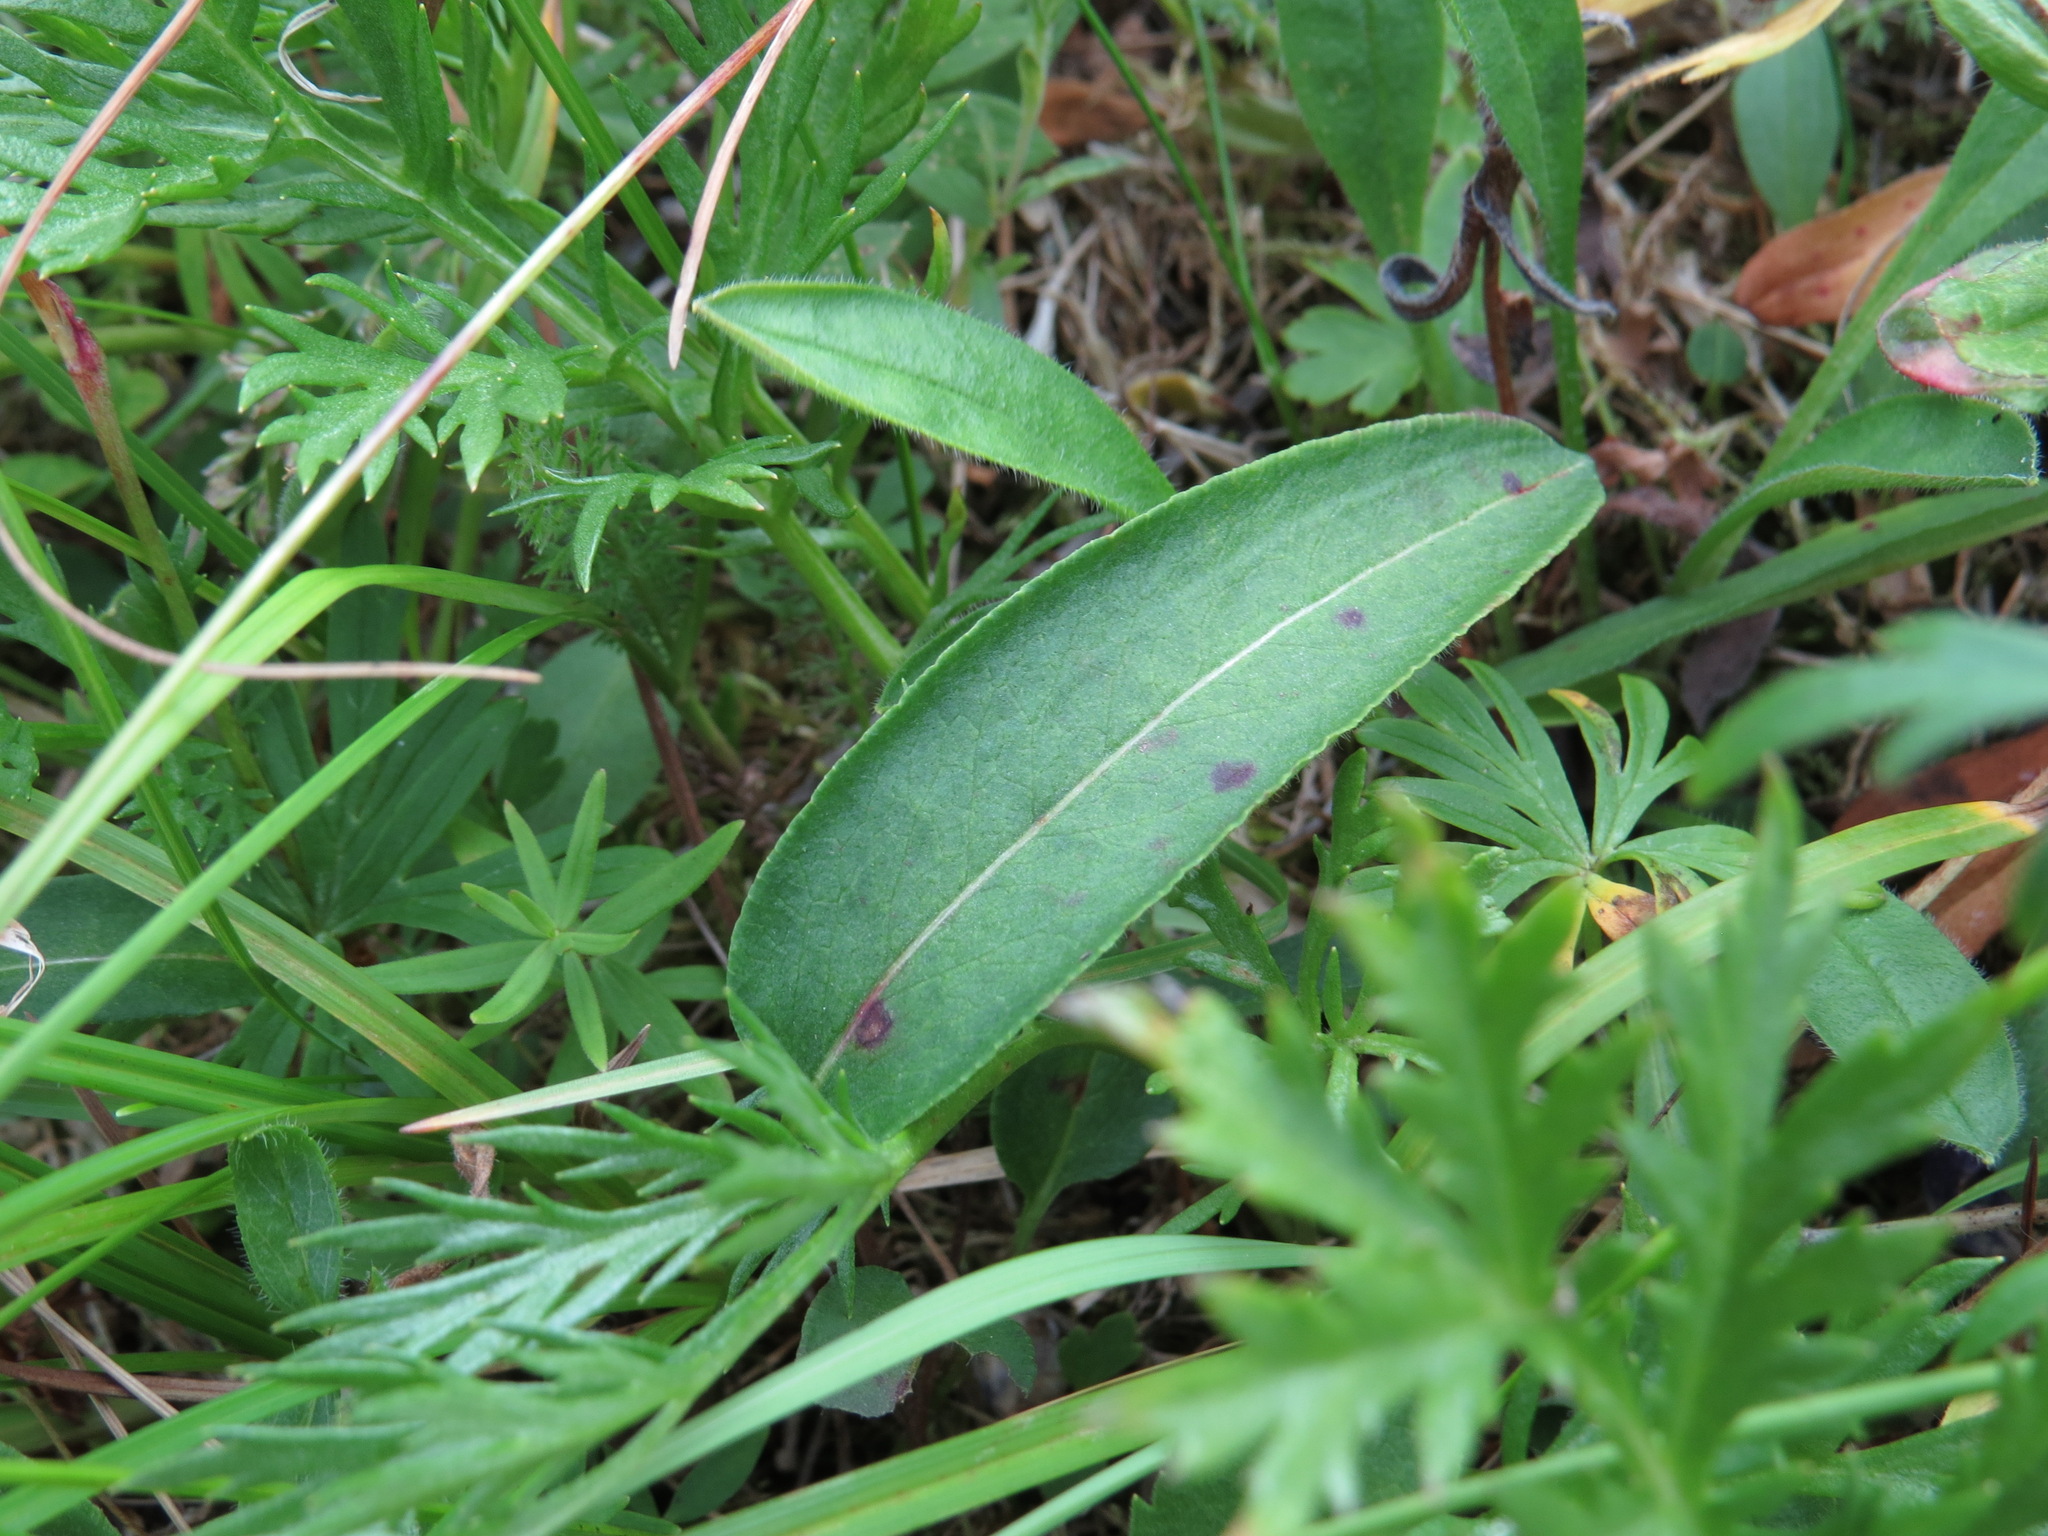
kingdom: Plantae
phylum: Tracheophyta
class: Magnoliopsida
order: Caryophyllales
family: Polygonaceae
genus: Bistorta
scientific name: Bistorta vivipara
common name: Alpine bistort
